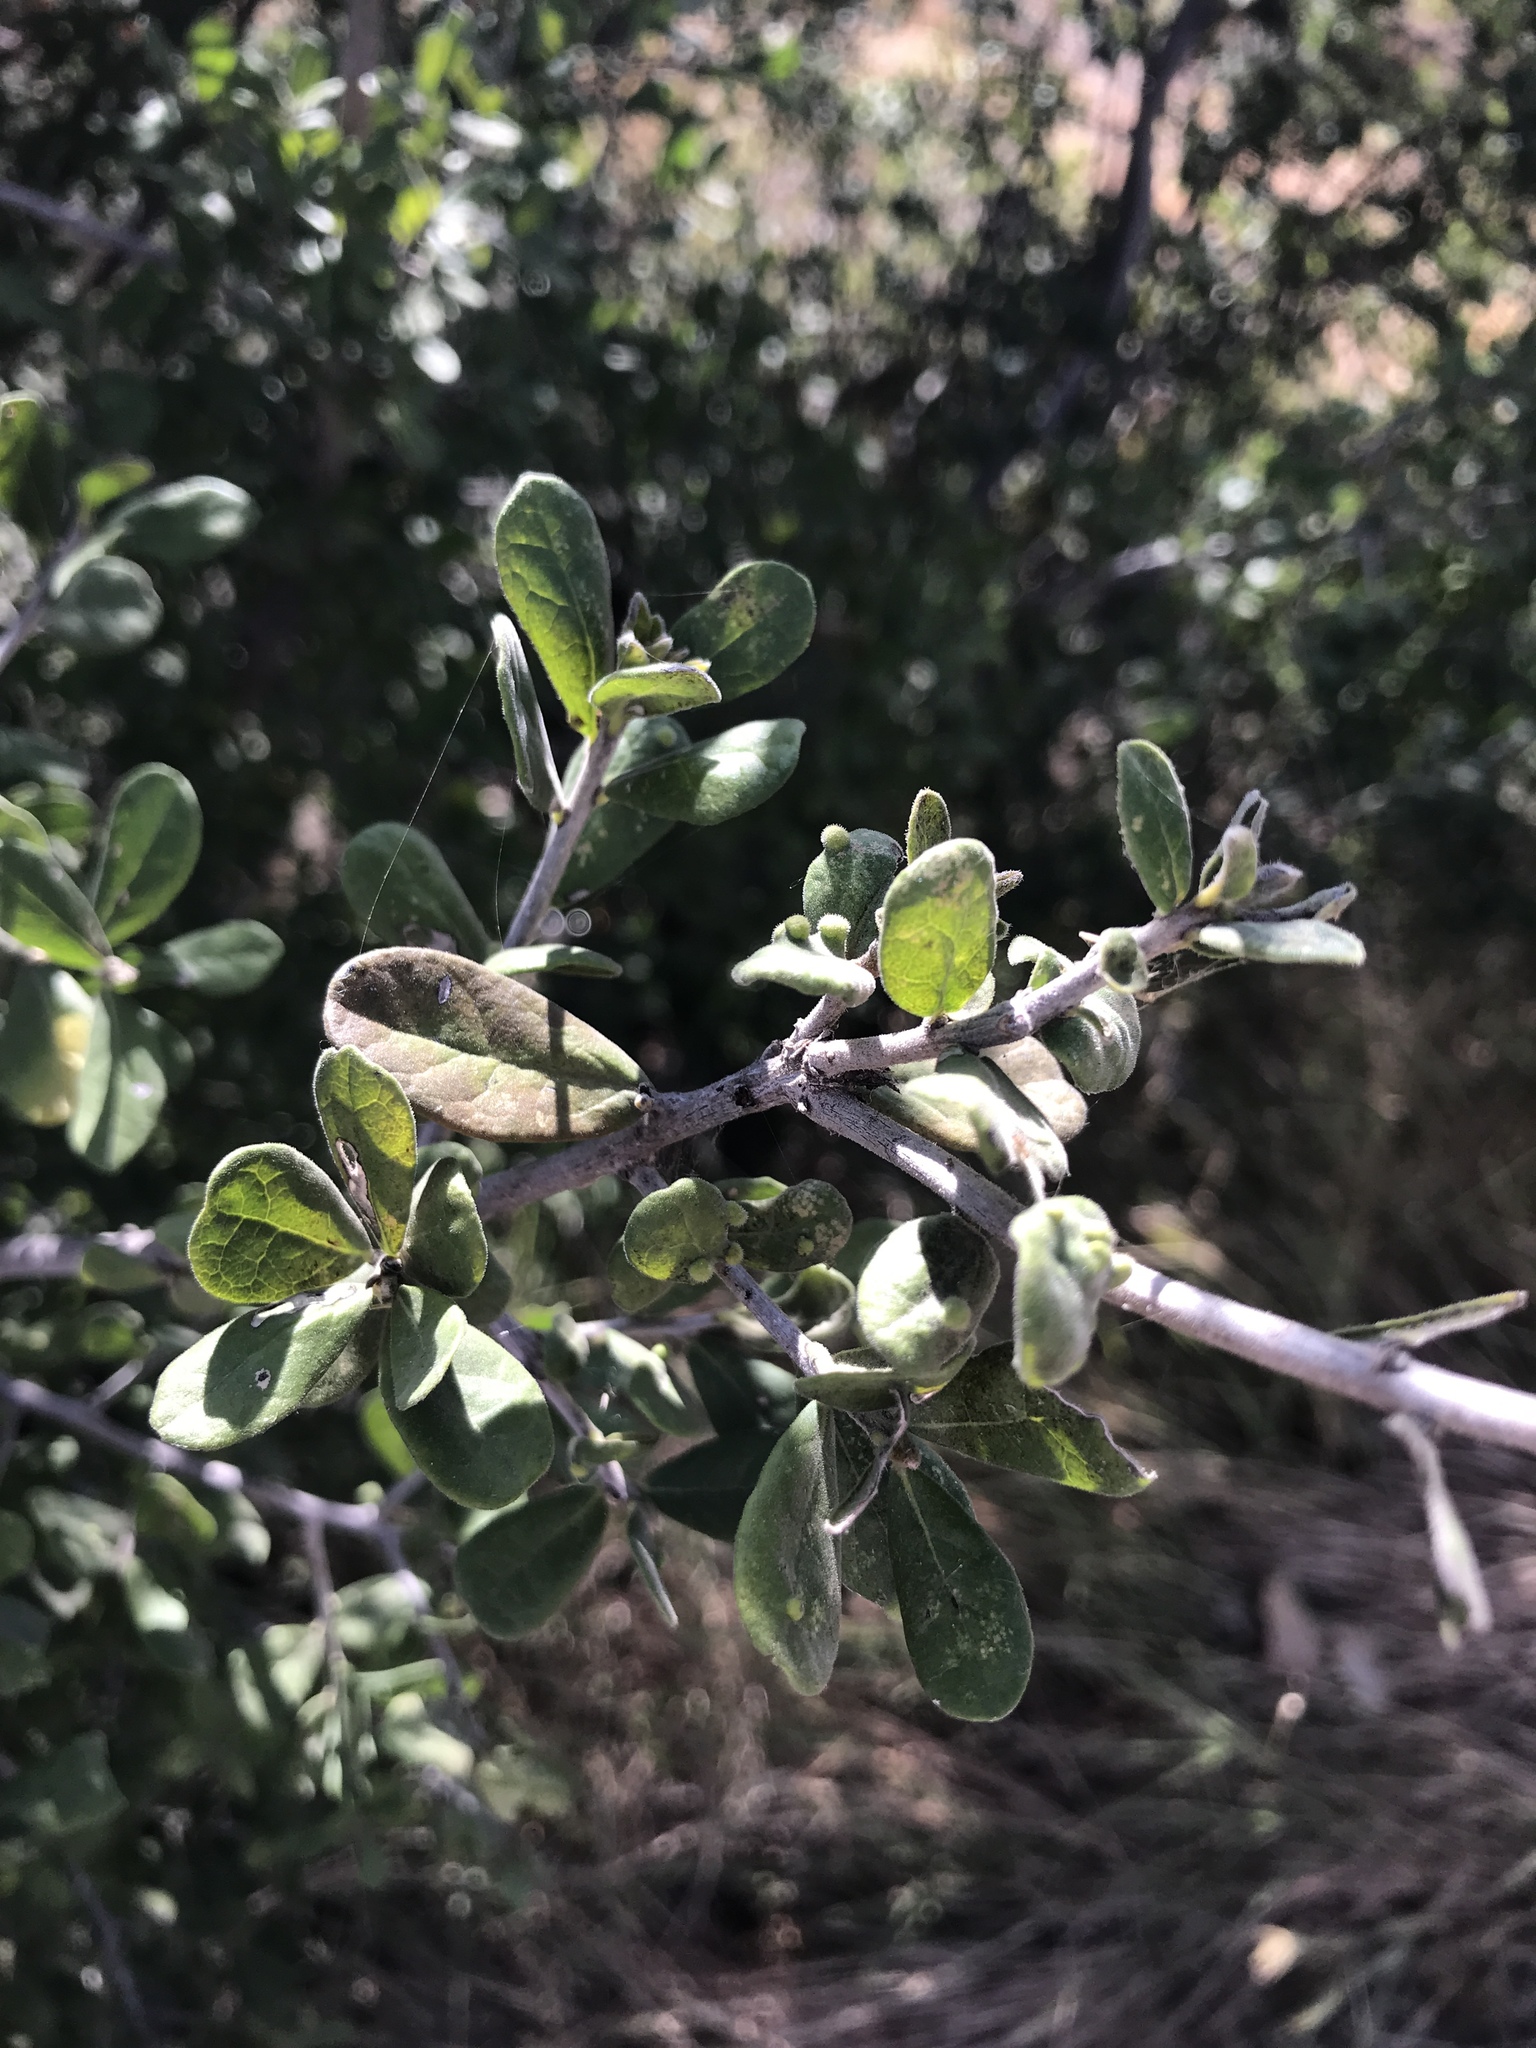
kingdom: Plantae
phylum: Tracheophyta
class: Magnoliopsida
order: Ericales
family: Ebenaceae
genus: Diospyros
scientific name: Diospyros texana
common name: Texas persimmon
